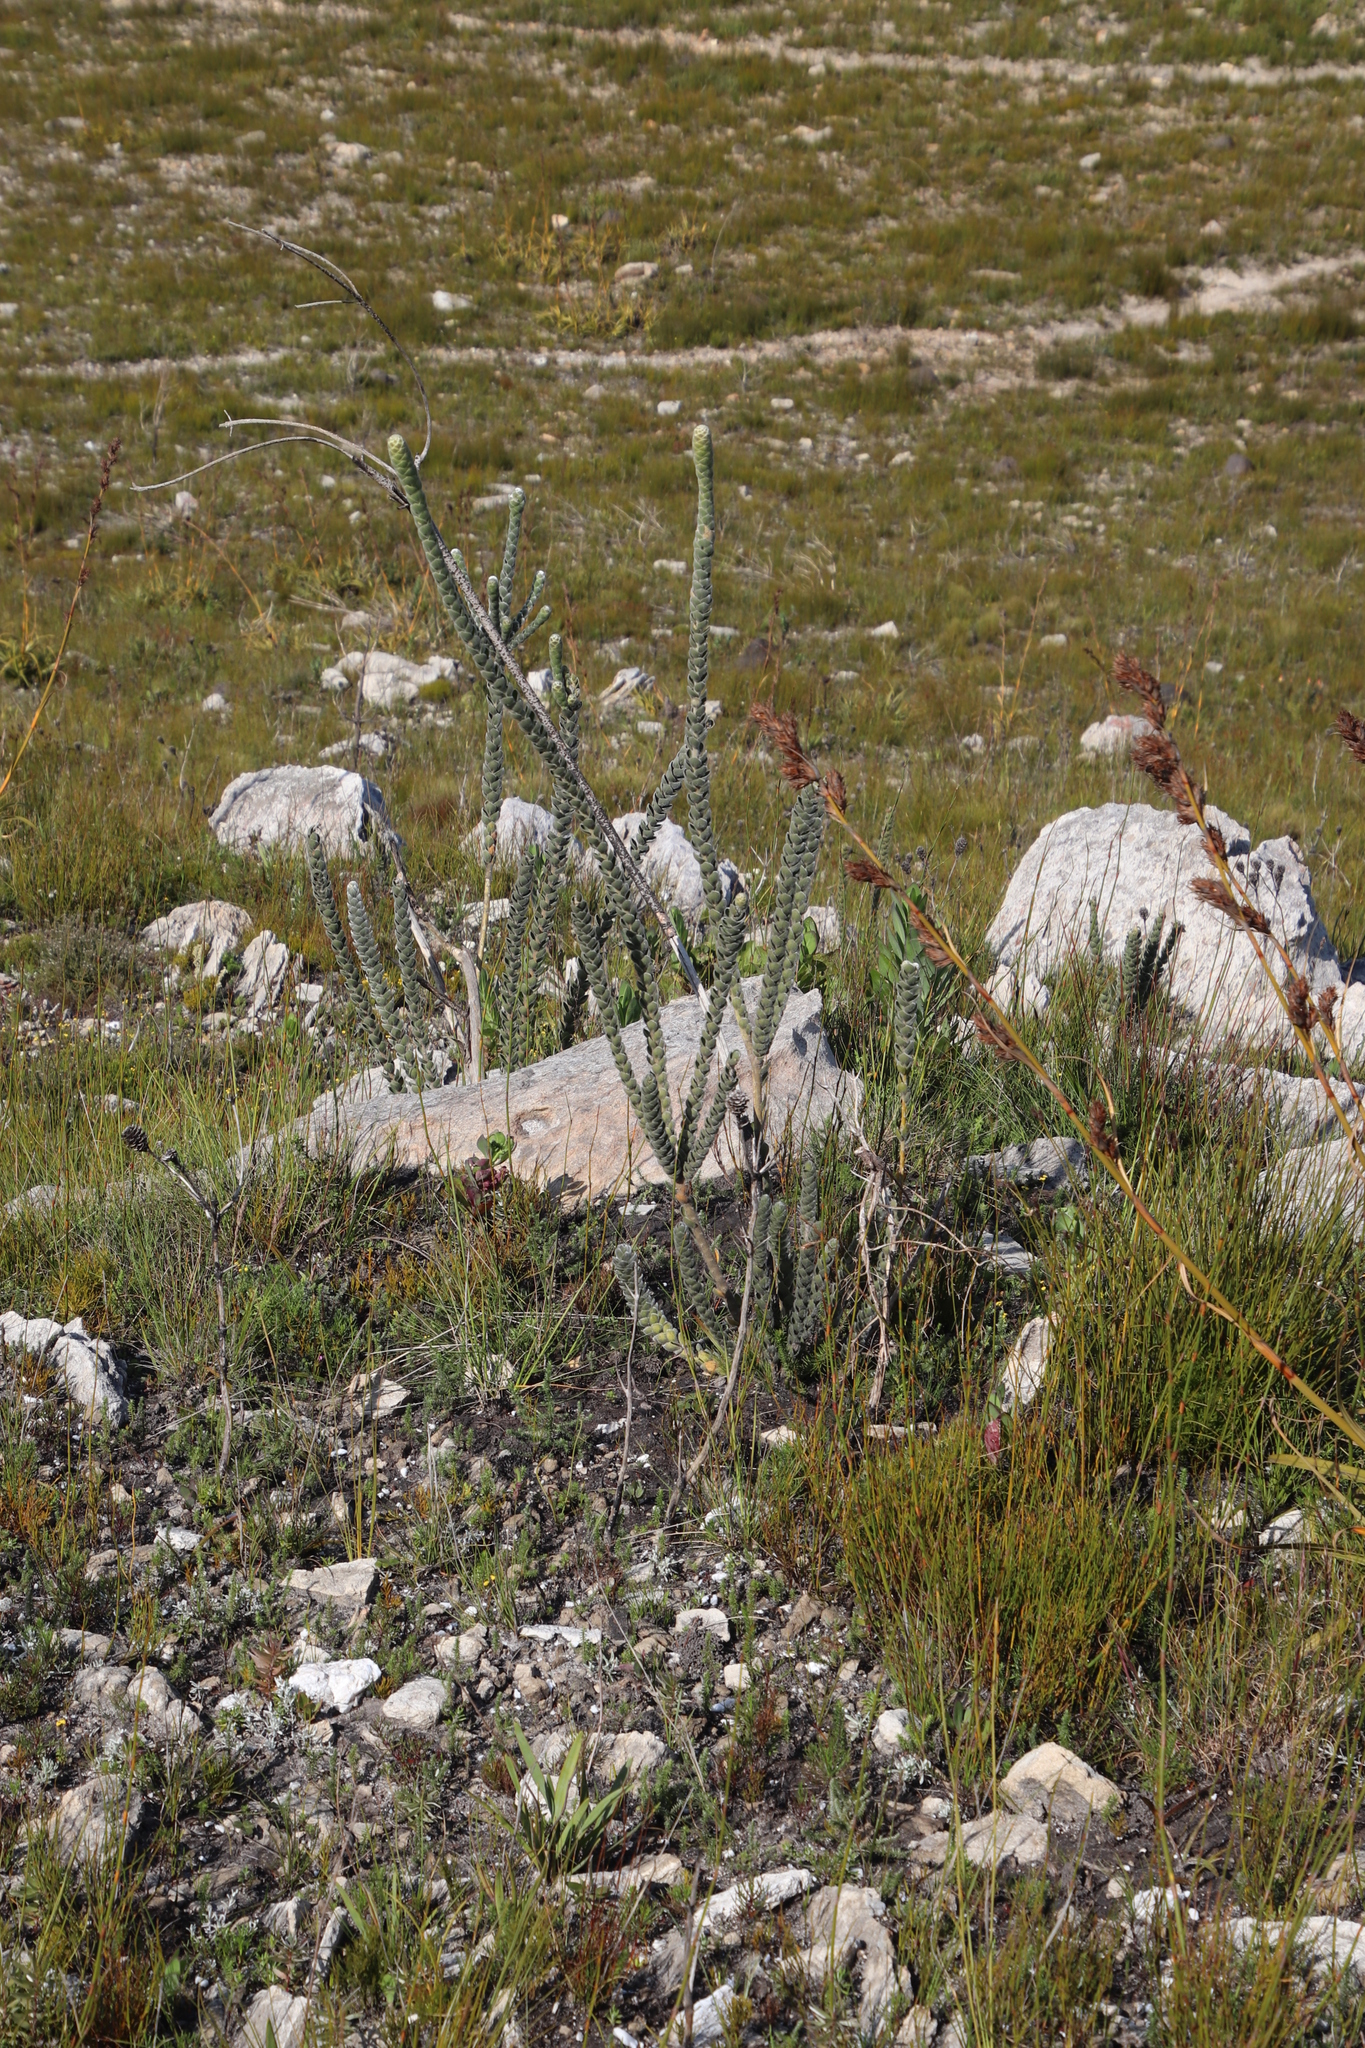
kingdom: Plantae
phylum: Tracheophyta
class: Magnoliopsida
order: Fabales
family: Fabaceae
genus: Liparia
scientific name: Liparia vestita
